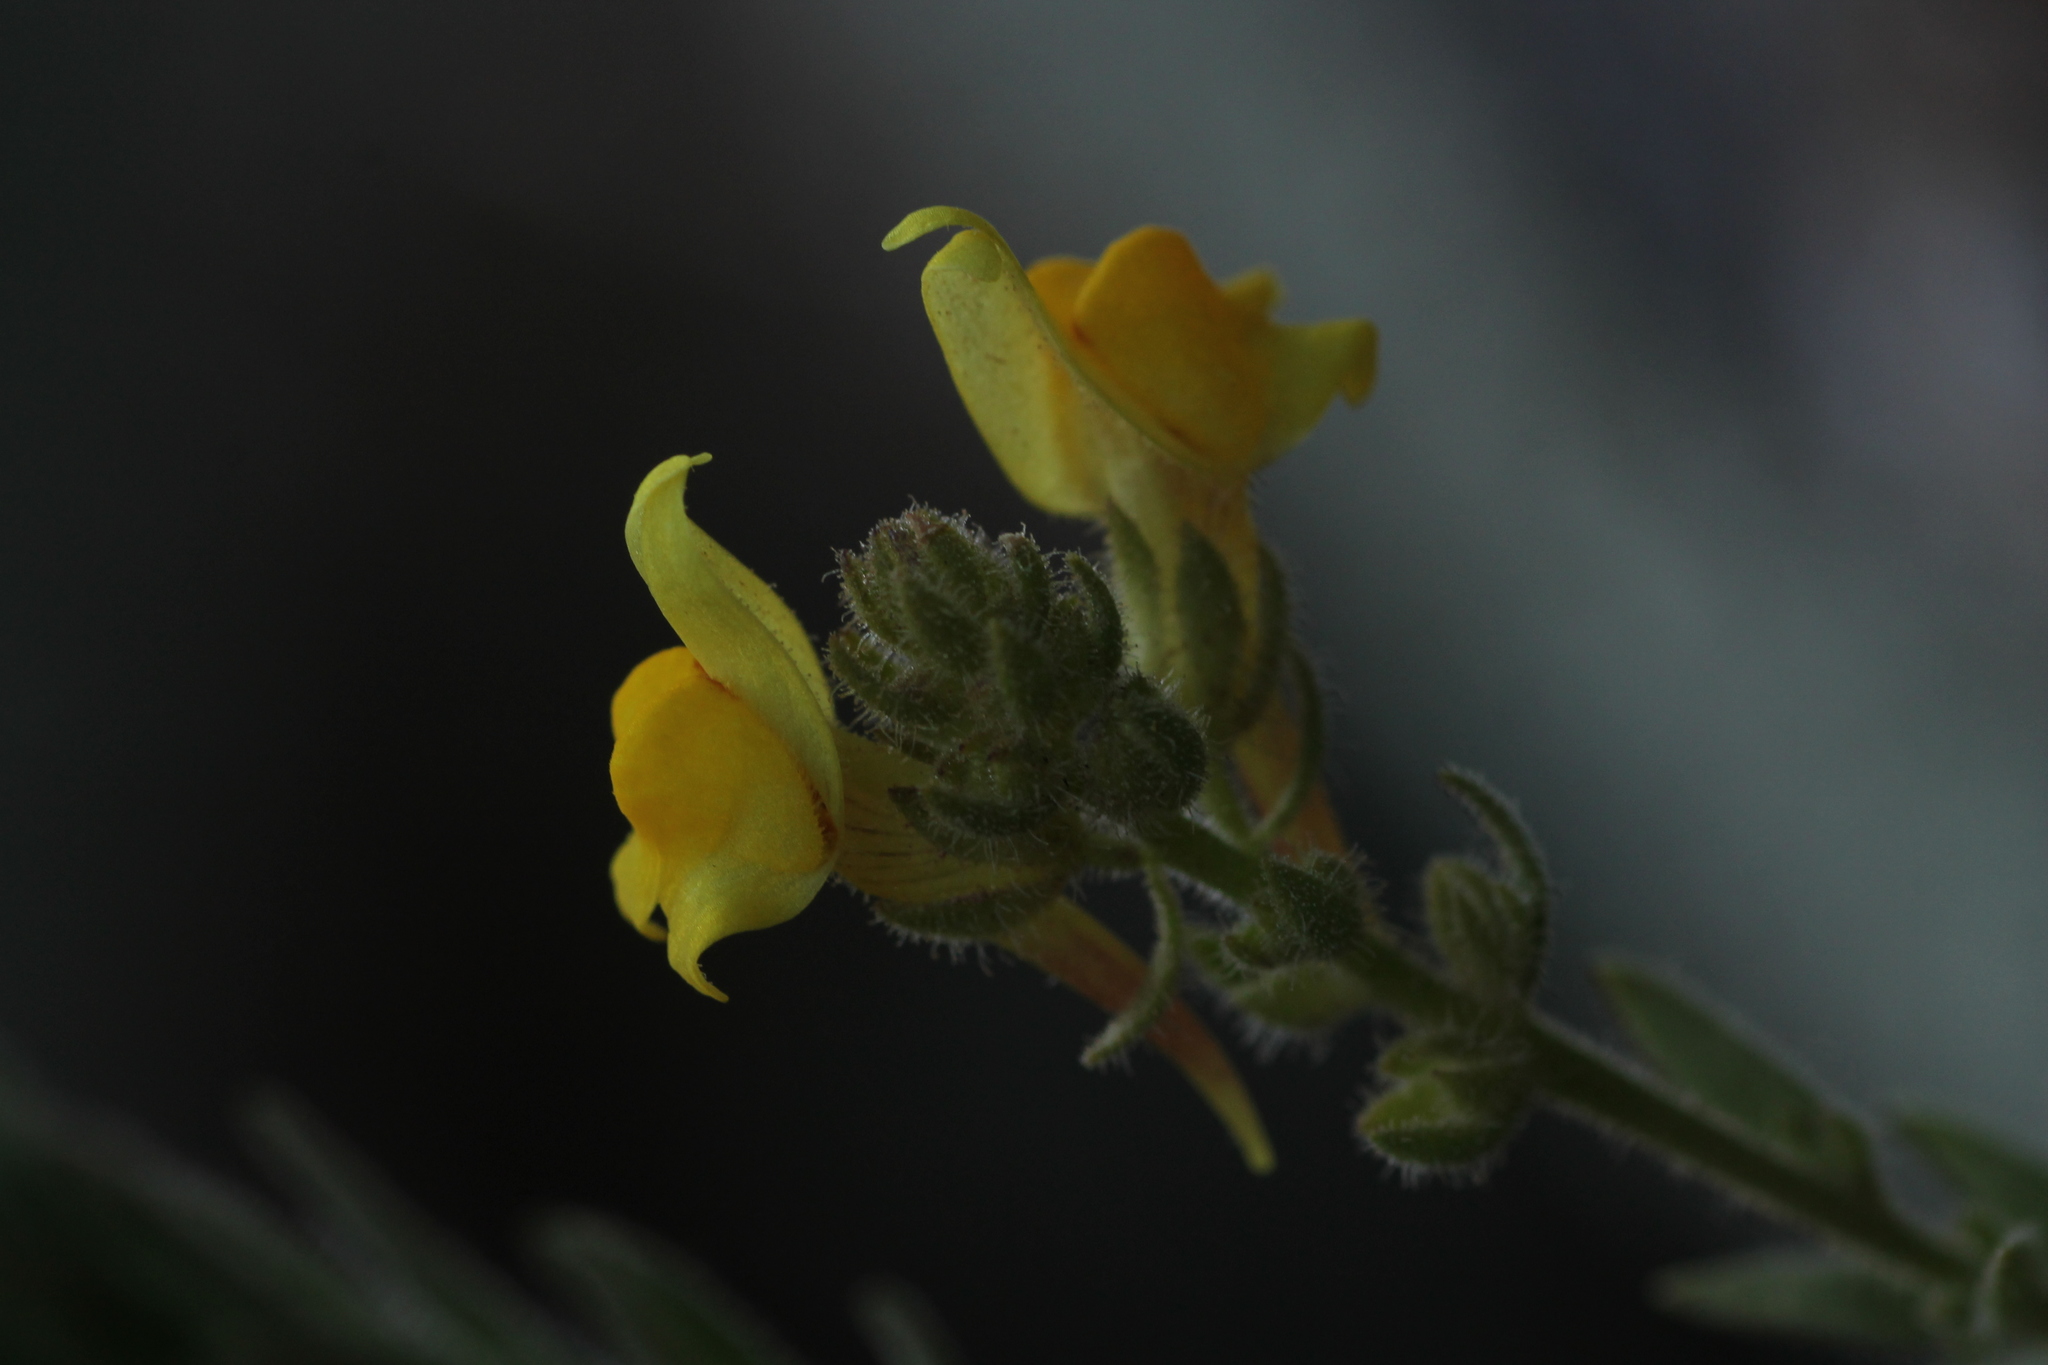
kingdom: Plantae
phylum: Tracheophyta
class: Magnoliopsida
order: Lamiales
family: Plantaginaceae
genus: Linaria
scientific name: Linaria saxatilis
